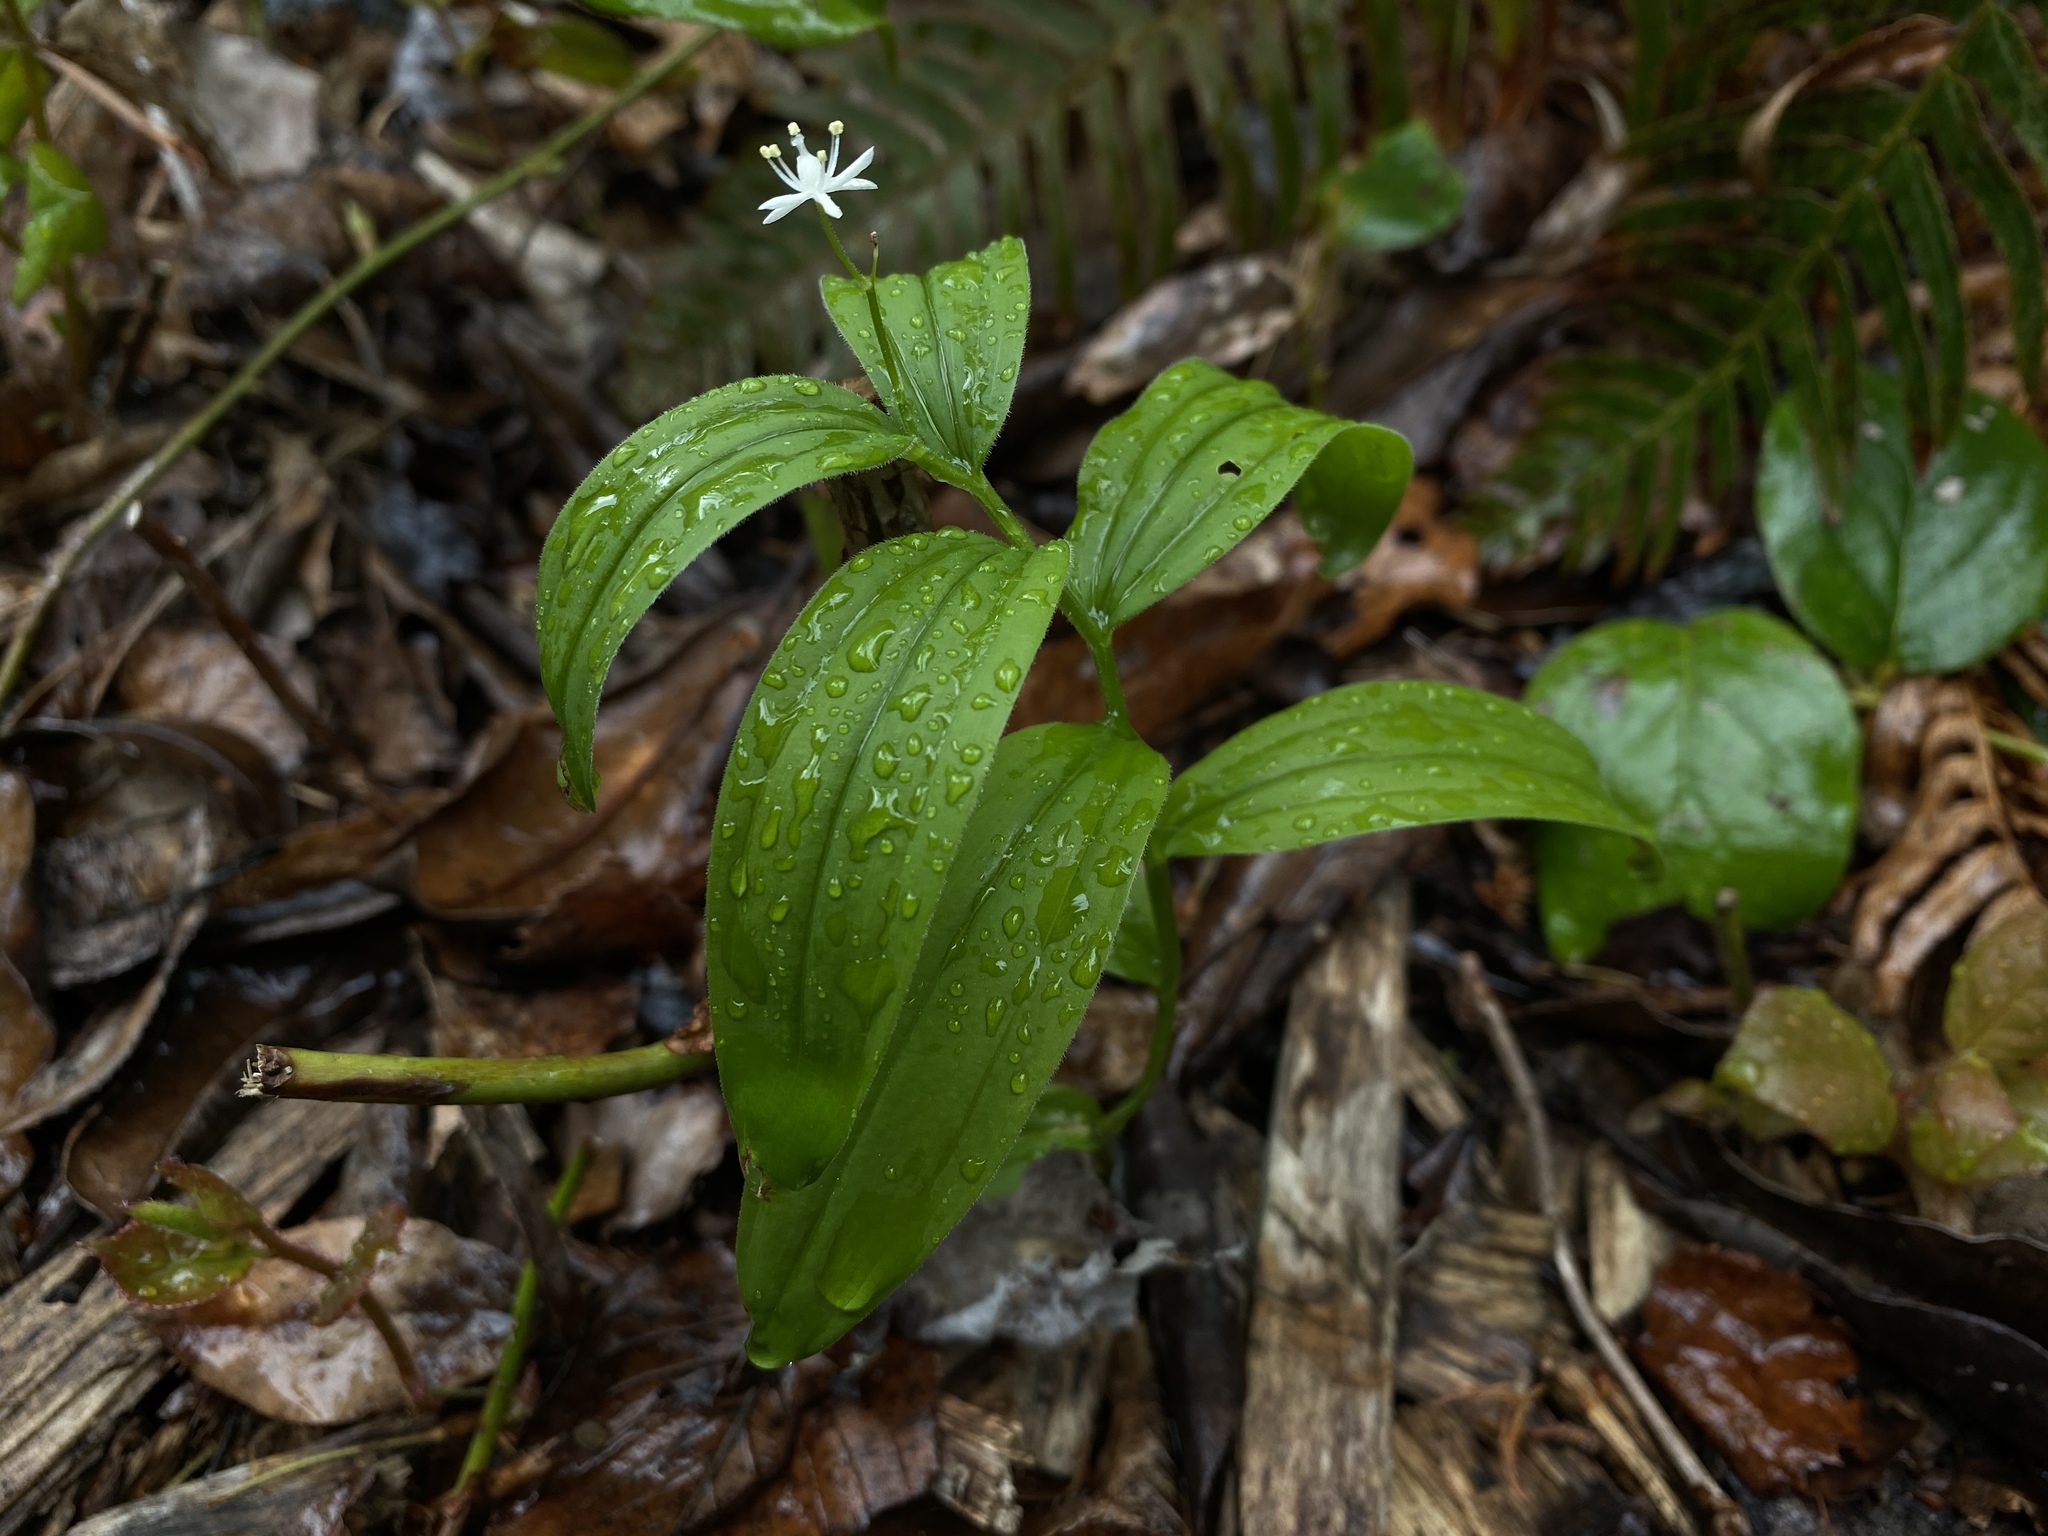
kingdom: Plantae
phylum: Tracheophyta
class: Liliopsida
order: Asparagales
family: Asparagaceae
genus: Maianthemum
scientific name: Maianthemum stellatum
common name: Little false solomon's seal
